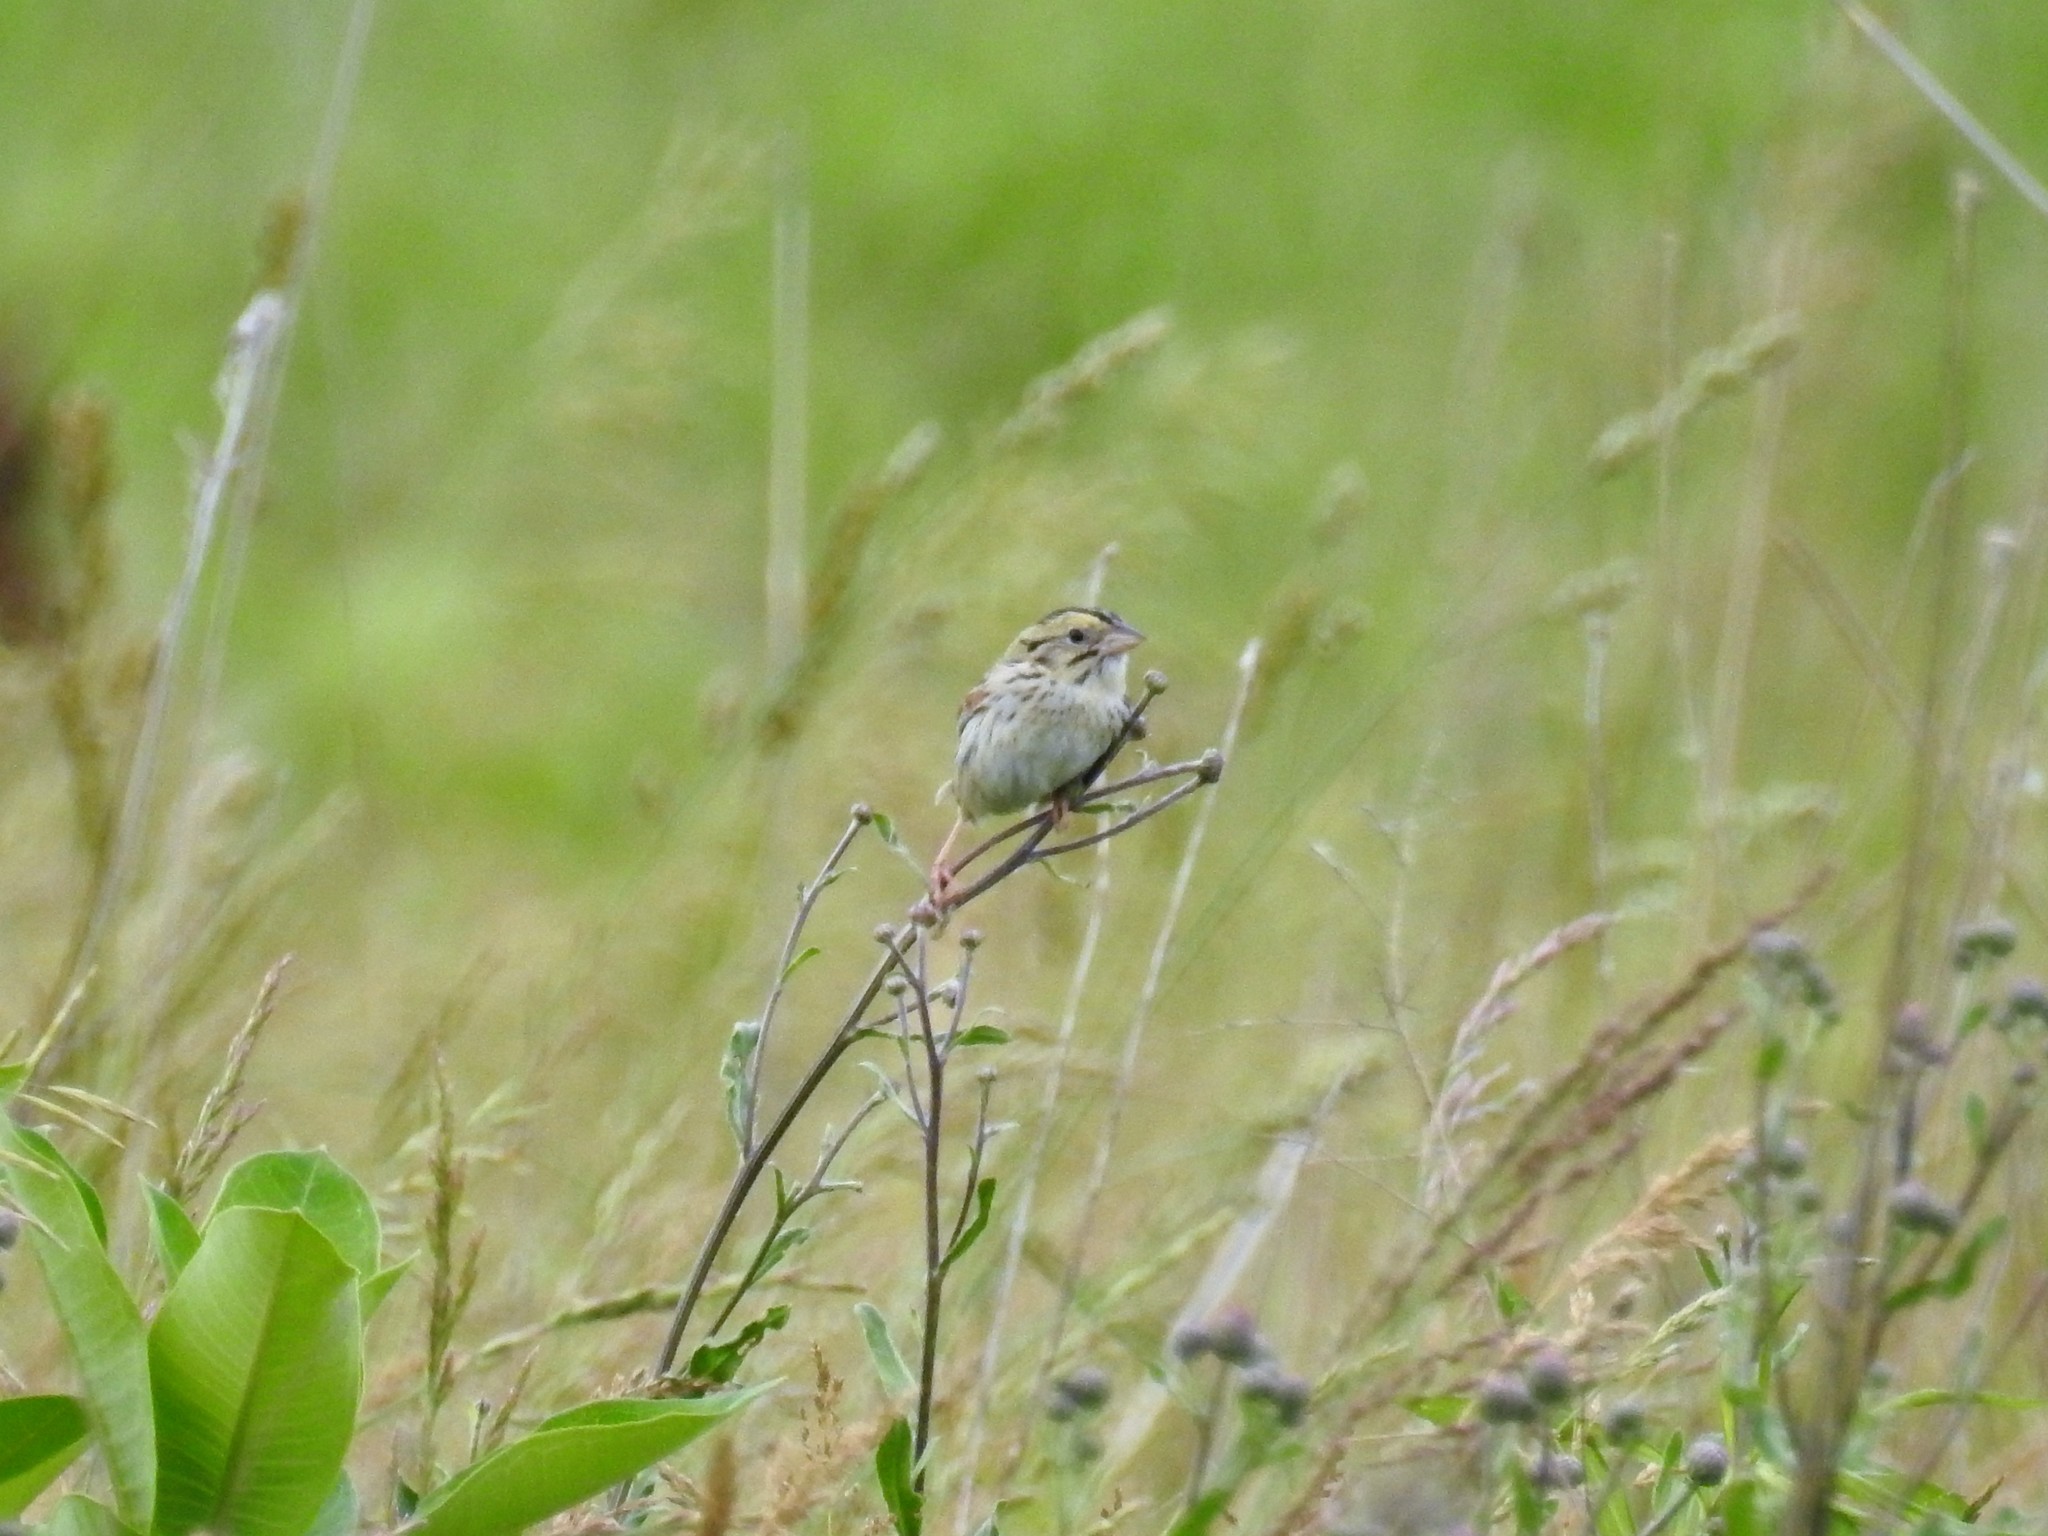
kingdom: Animalia
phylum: Chordata
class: Aves
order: Passeriformes
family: Passerellidae
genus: Centronyx
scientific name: Centronyx henslowii
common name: Henslow's sparrow
